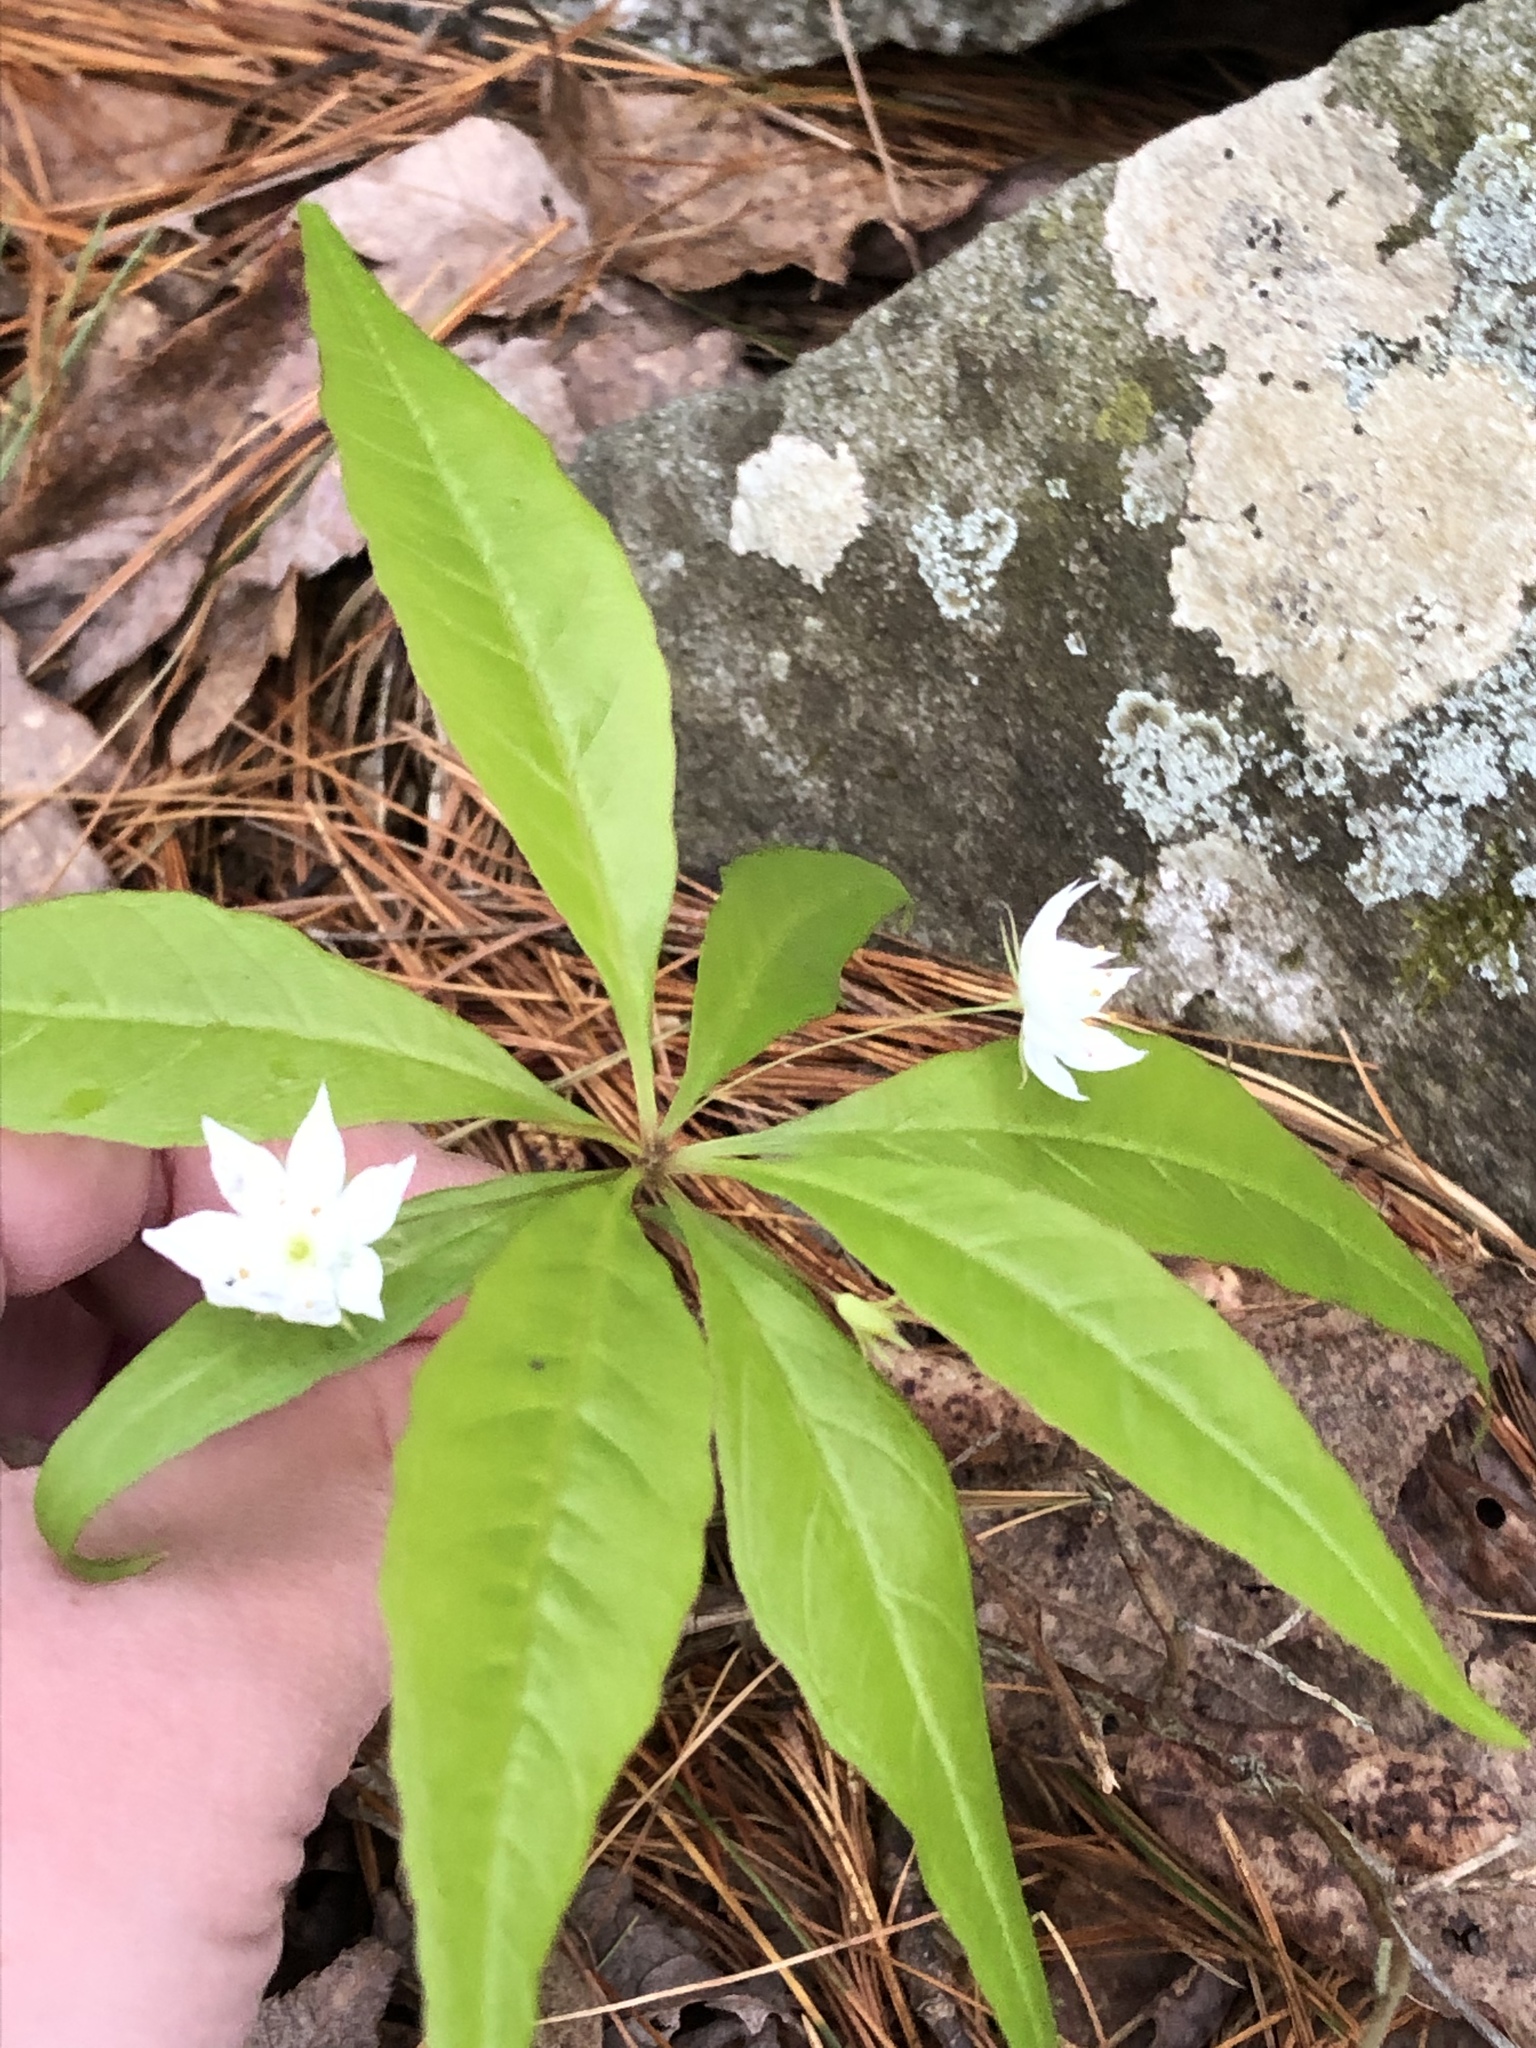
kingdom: Plantae
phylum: Tracheophyta
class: Magnoliopsida
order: Ericales
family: Primulaceae
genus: Lysimachia
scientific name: Lysimachia borealis
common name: American starflower
